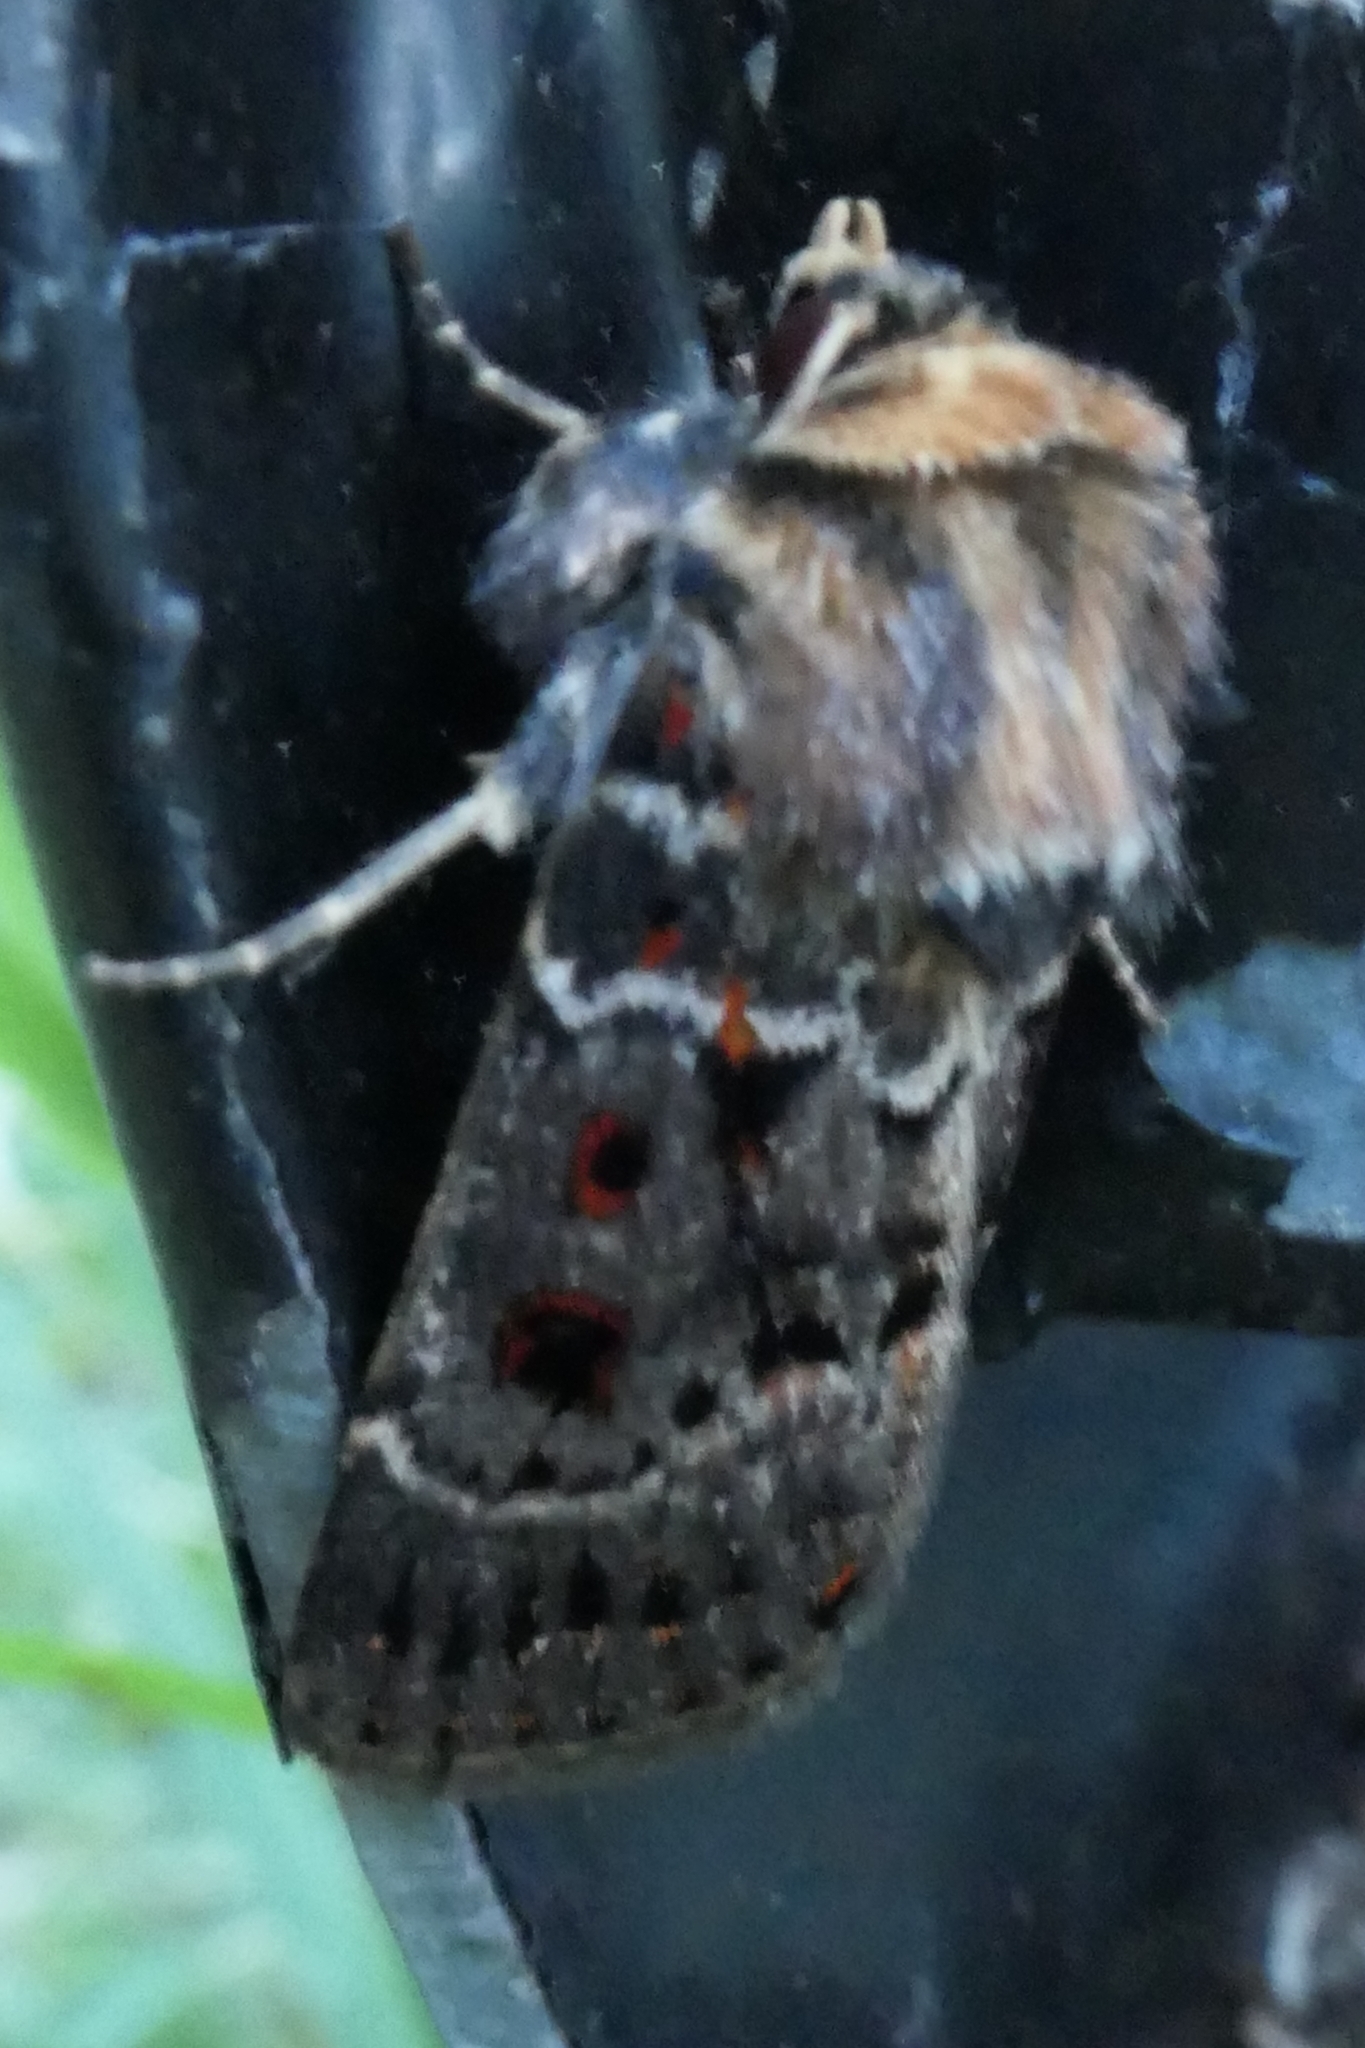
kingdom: Animalia
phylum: Arthropoda
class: Insecta
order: Lepidoptera
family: Noctuidae
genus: Proteuxoa
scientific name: Proteuxoa sanguinipuncta
